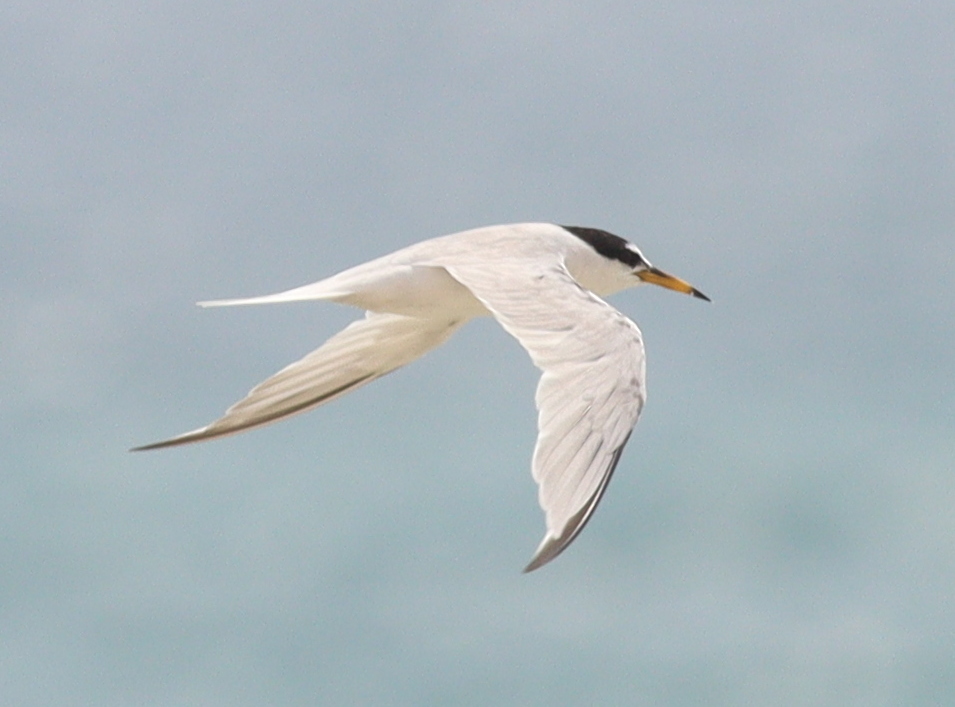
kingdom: Animalia
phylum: Chordata
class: Aves
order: Charadriiformes
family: Laridae
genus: Sternula
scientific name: Sternula saundersi
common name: Saunders's tern
